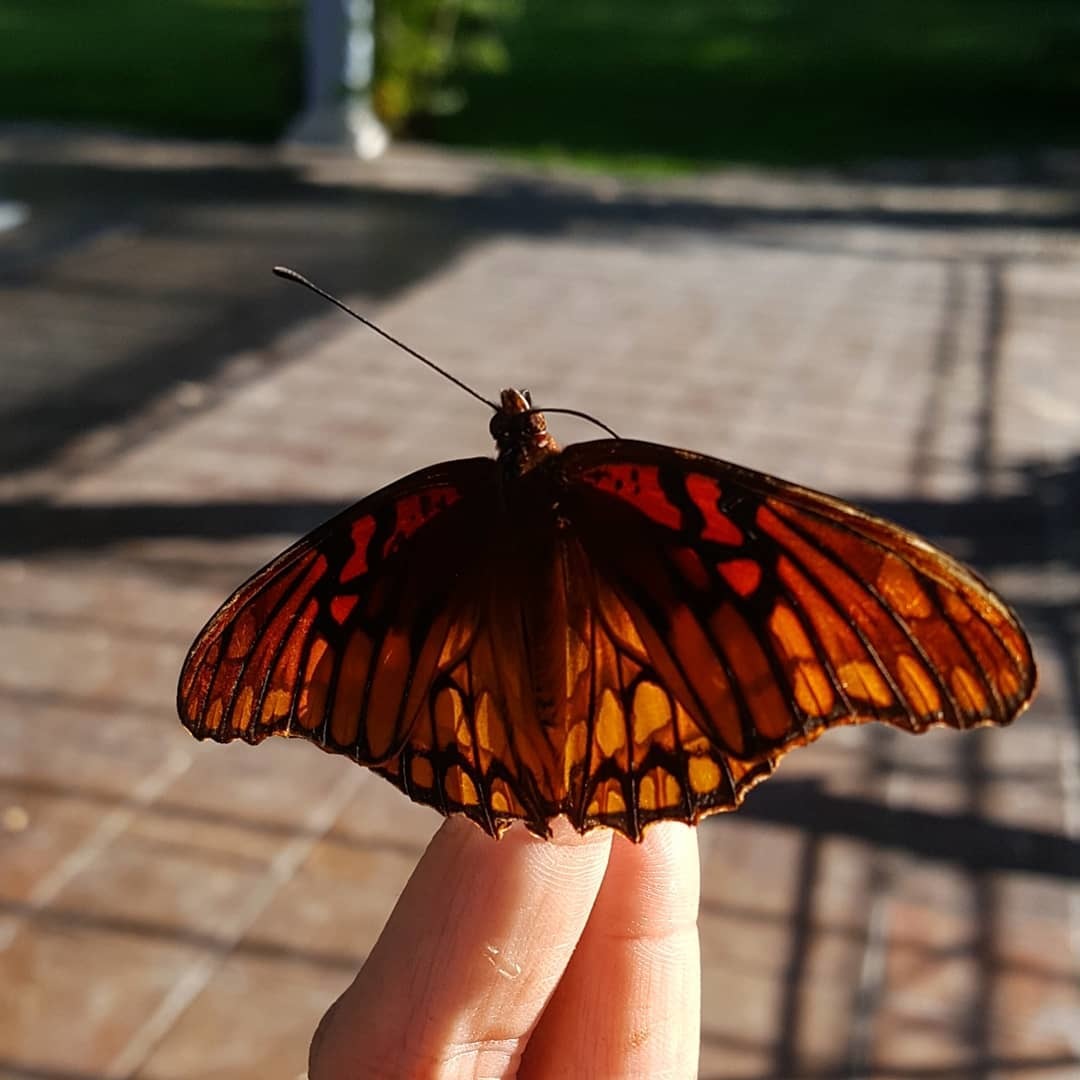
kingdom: Animalia
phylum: Arthropoda
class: Insecta
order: Lepidoptera
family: Nymphalidae
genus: Dione
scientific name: Dione moneta
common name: Mexican silverspot
